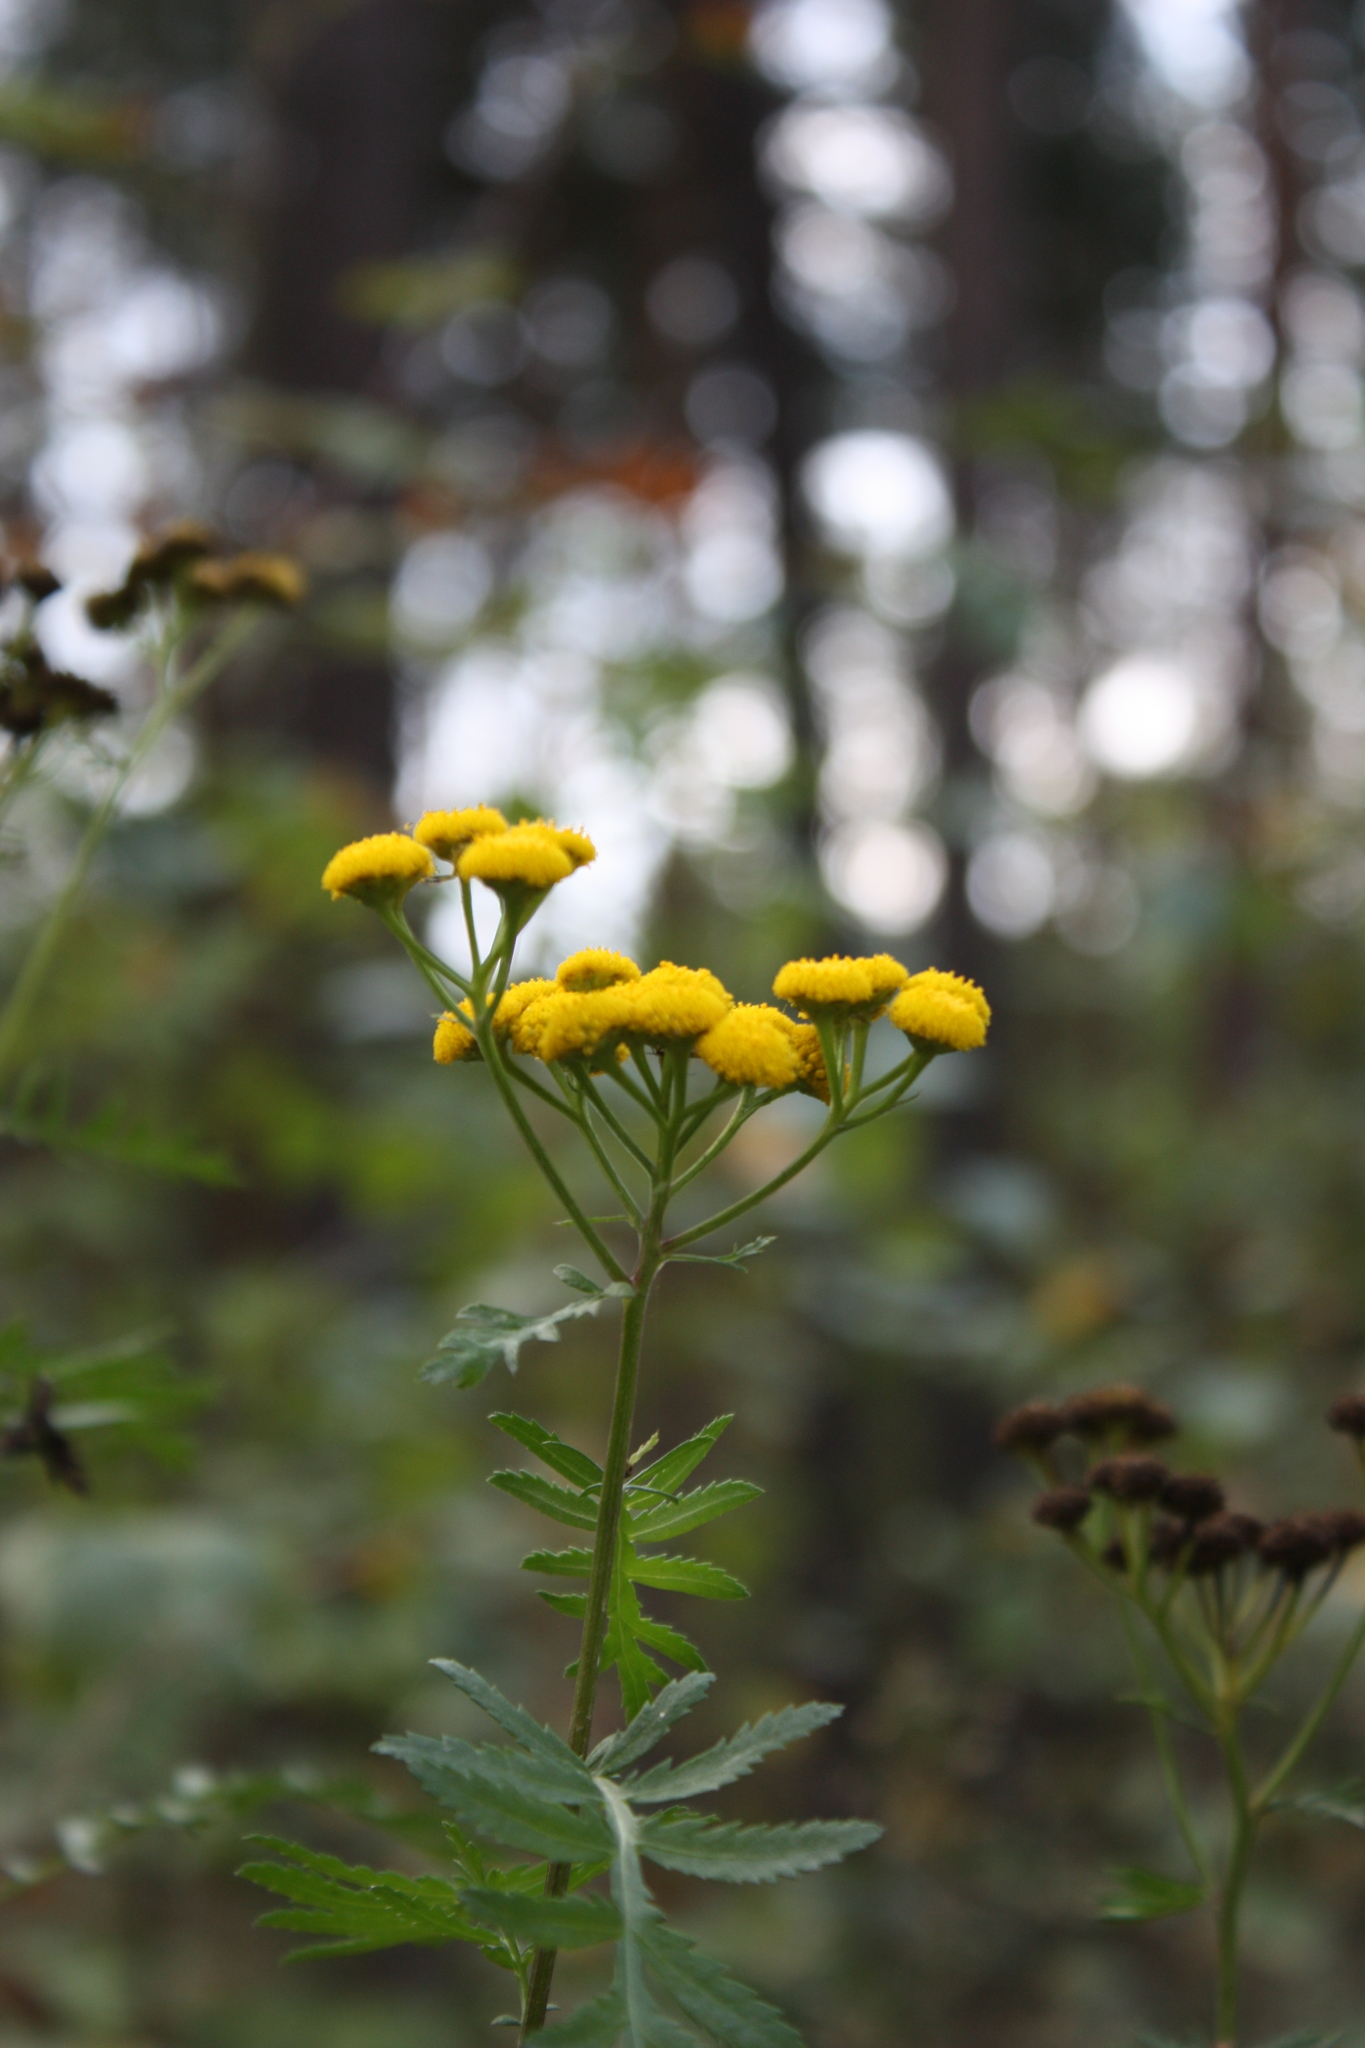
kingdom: Plantae
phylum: Tracheophyta
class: Magnoliopsida
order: Asterales
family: Asteraceae
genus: Tanacetum
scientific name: Tanacetum vulgare
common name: Common tansy
